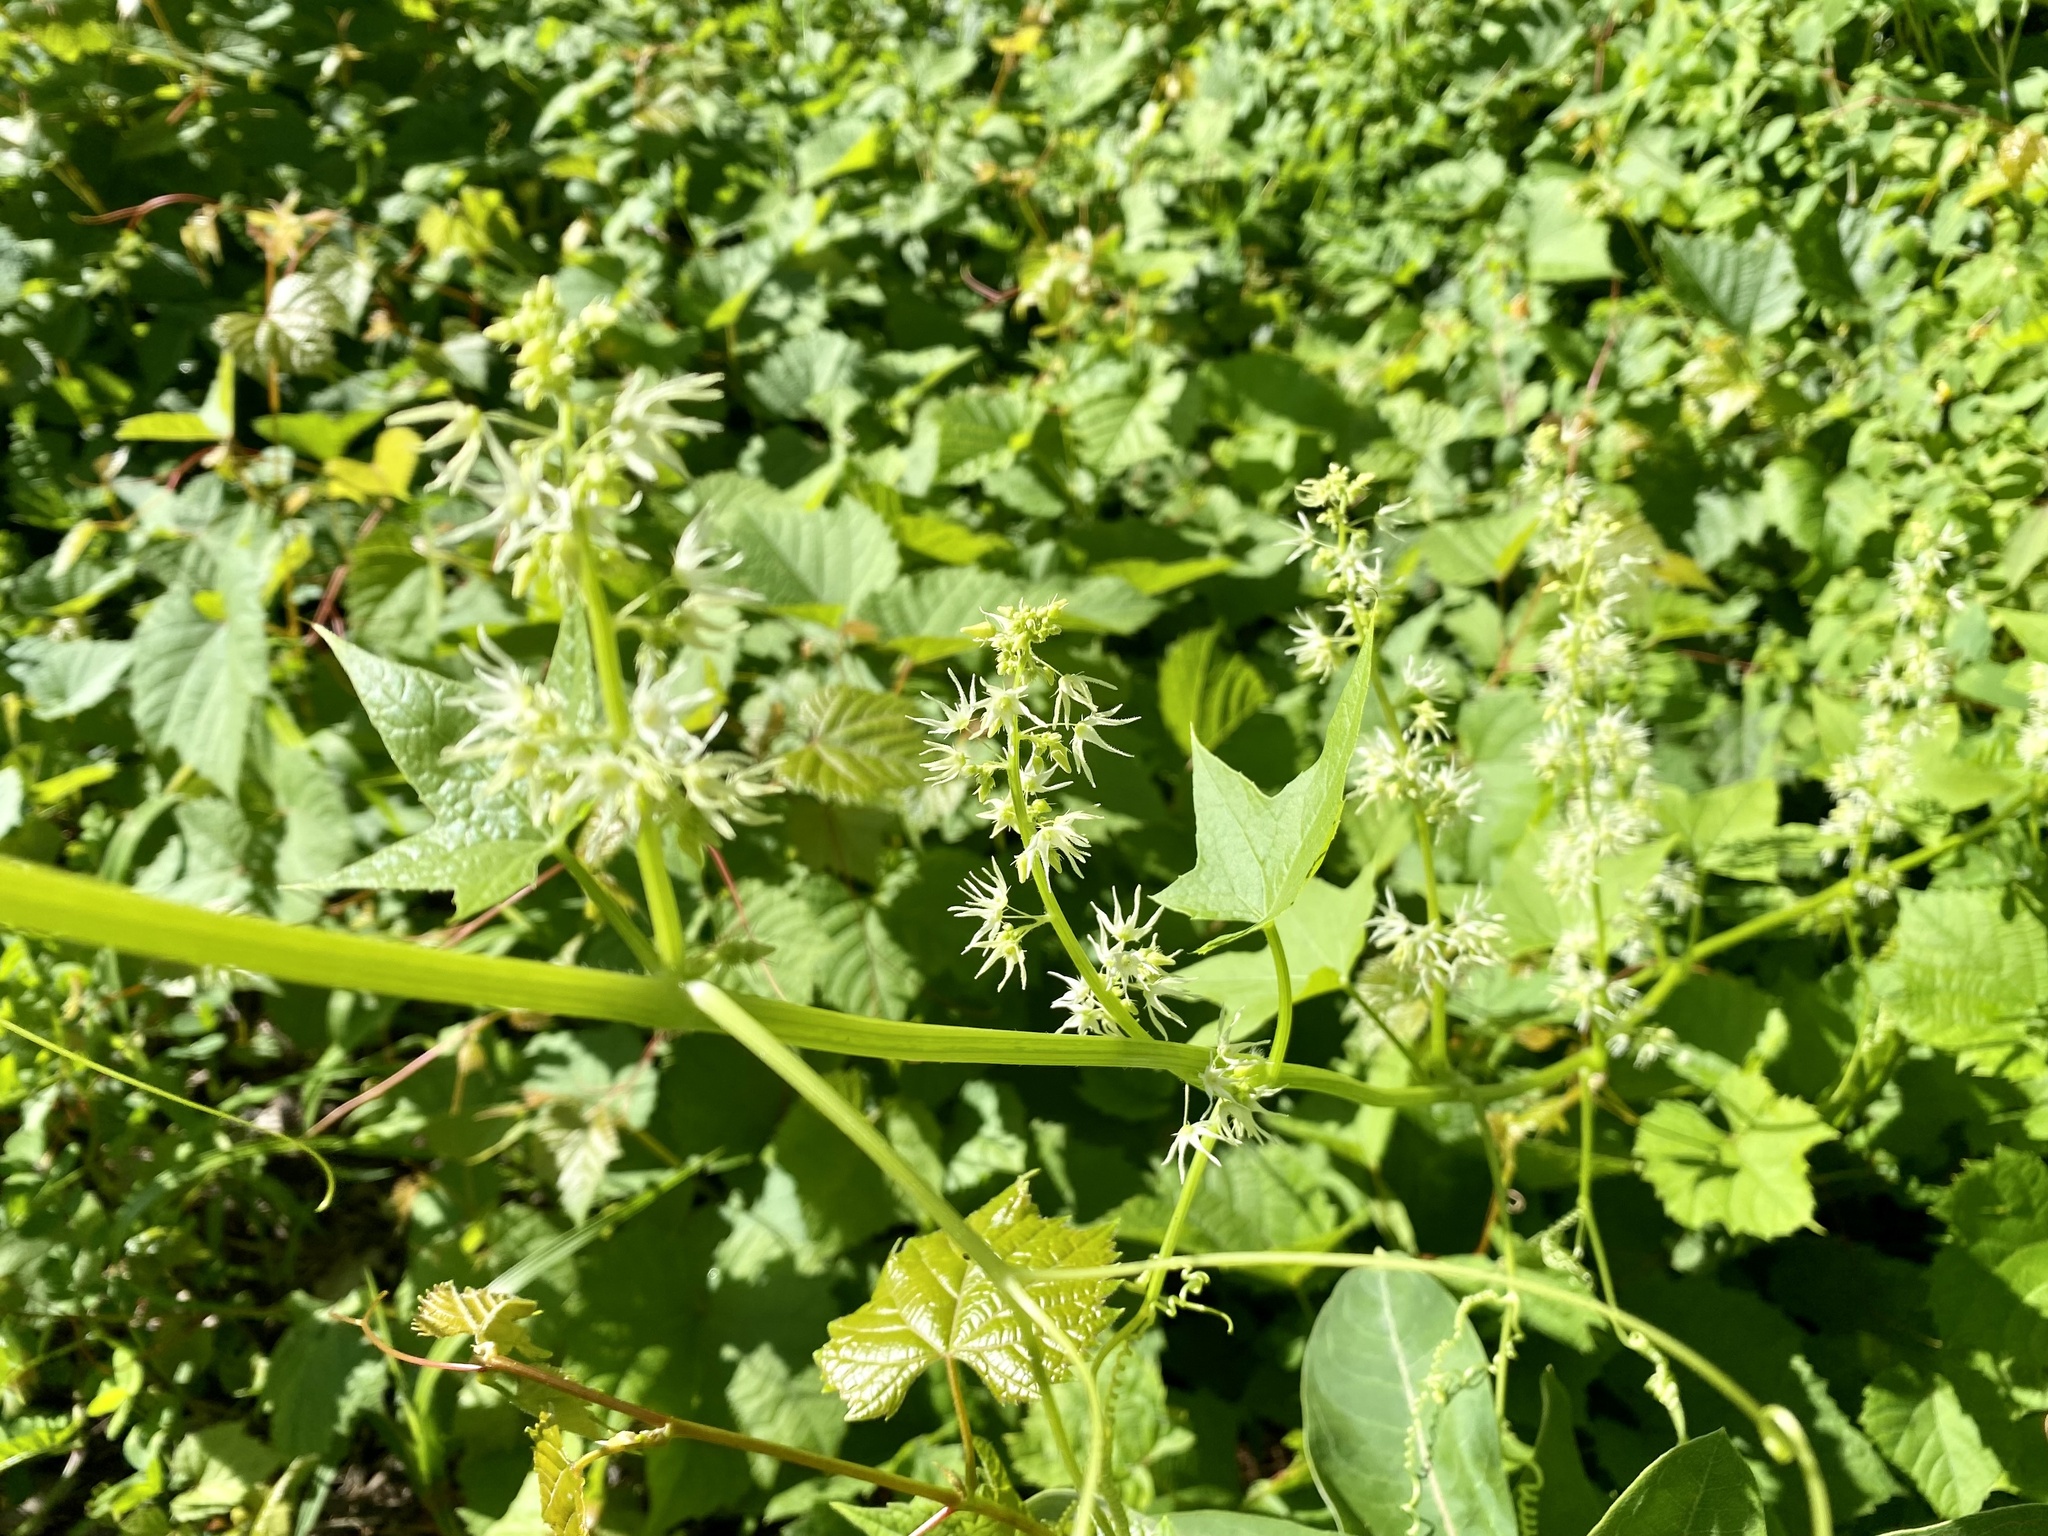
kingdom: Plantae
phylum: Tracheophyta
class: Magnoliopsida
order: Cucurbitales
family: Cucurbitaceae
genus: Echinocystis
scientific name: Echinocystis lobata
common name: Wild cucumber
